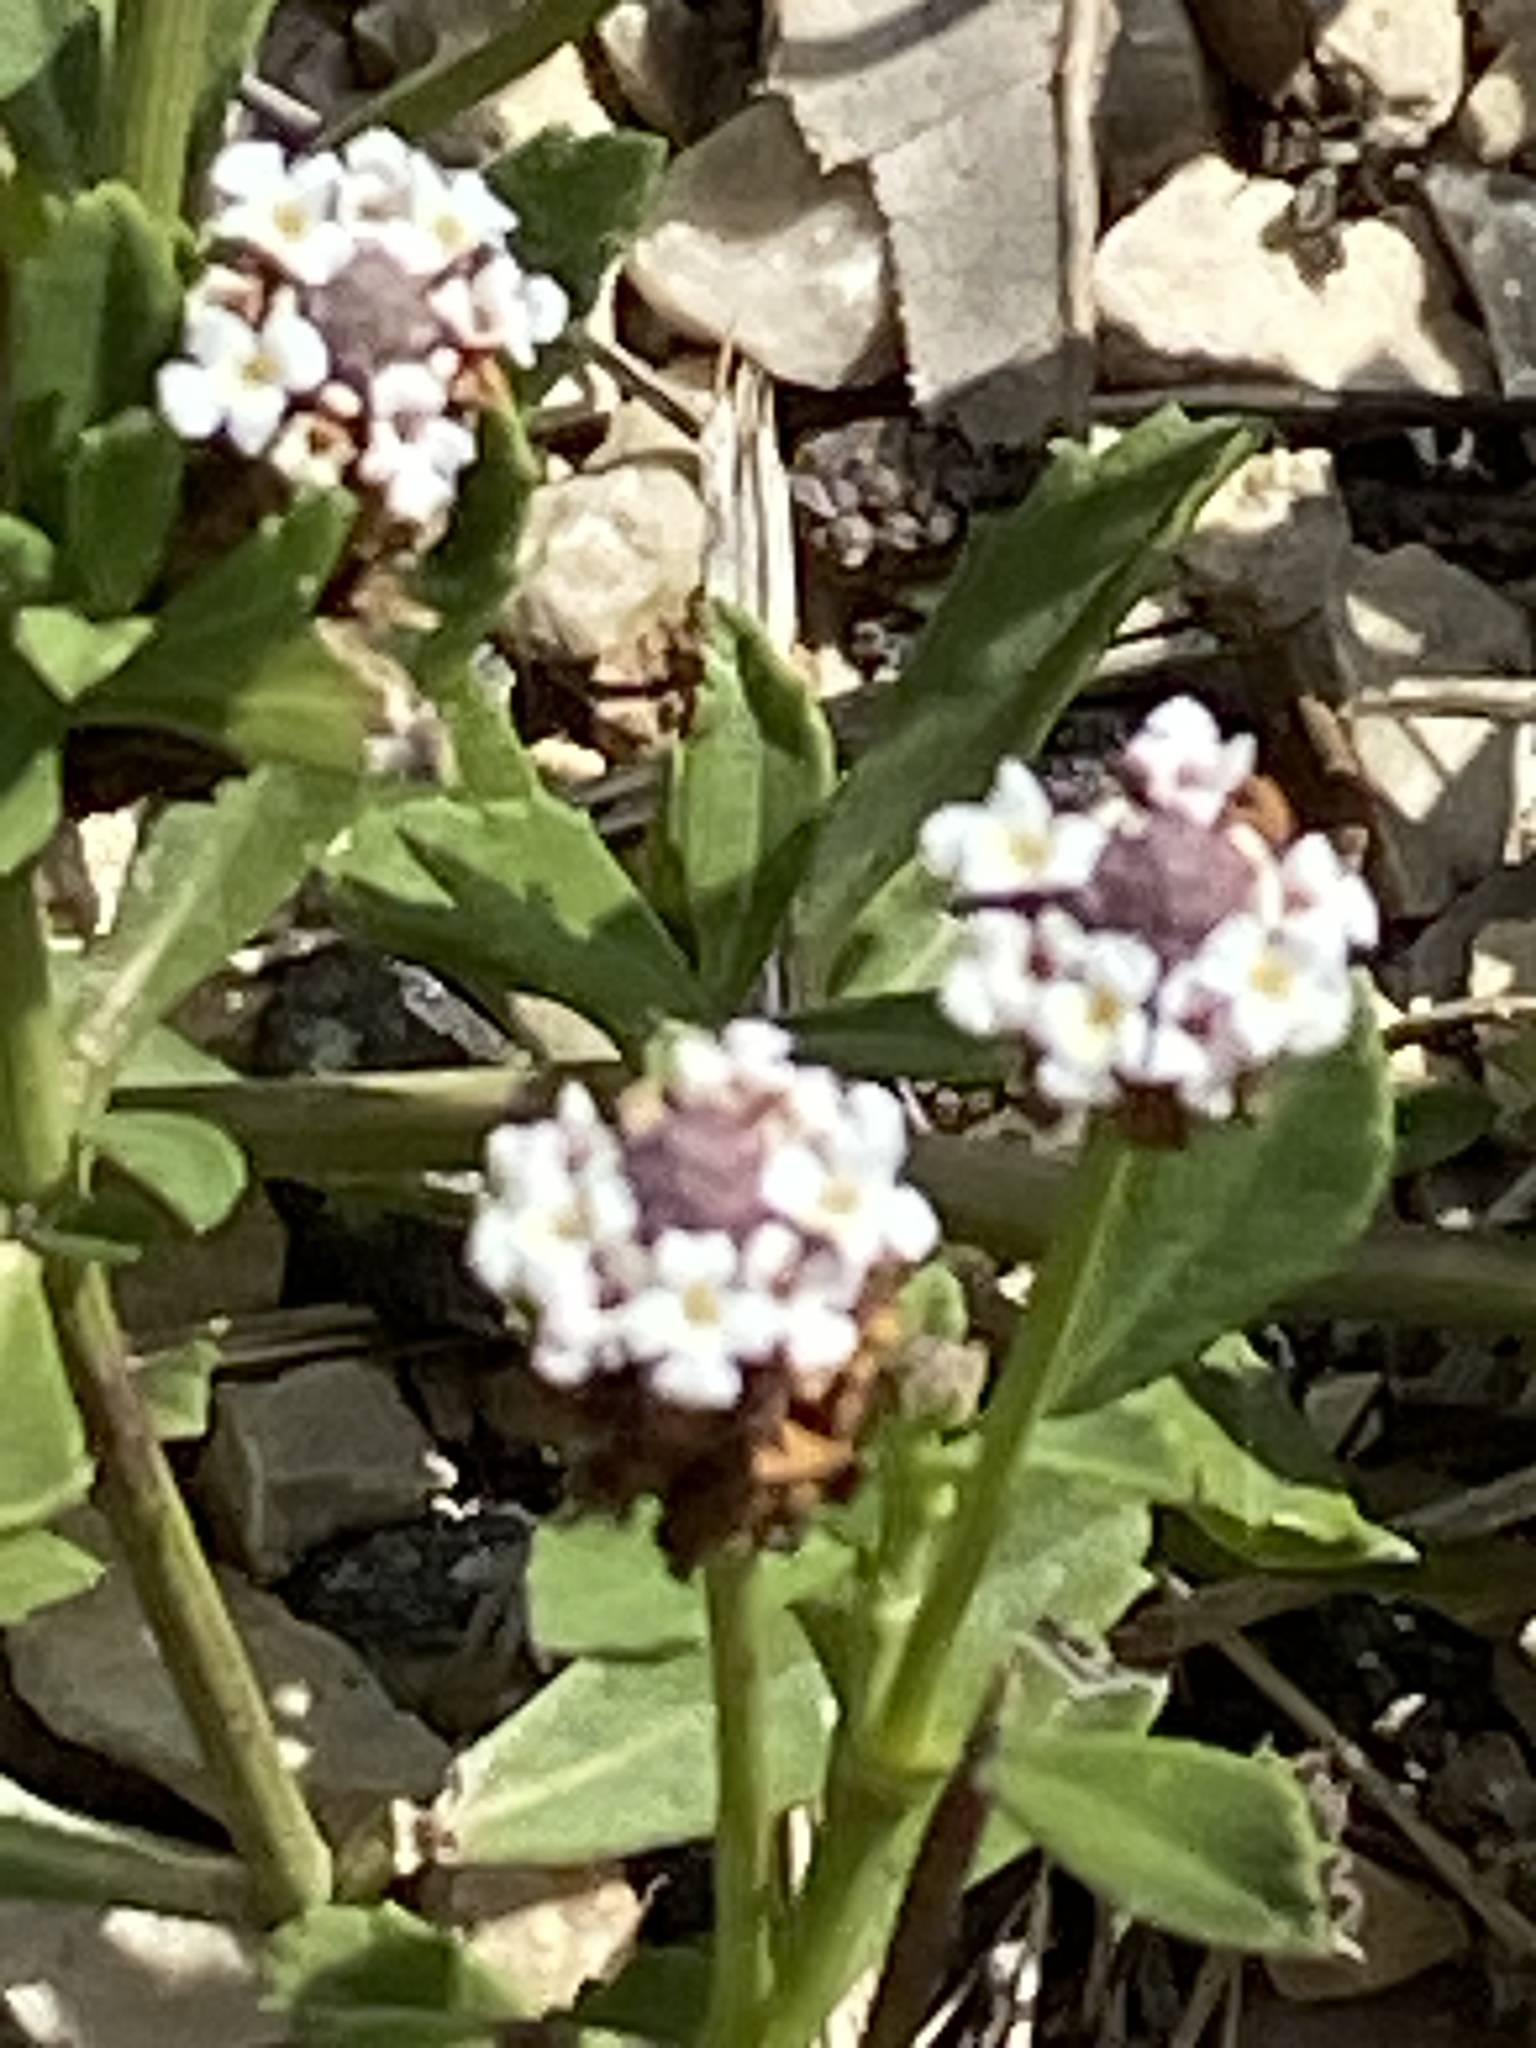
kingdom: Plantae
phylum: Tracheophyta
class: Magnoliopsida
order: Lamiales
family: Verbenaceae
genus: Phyla
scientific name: Phyla nodiflora
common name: Frogfruit
